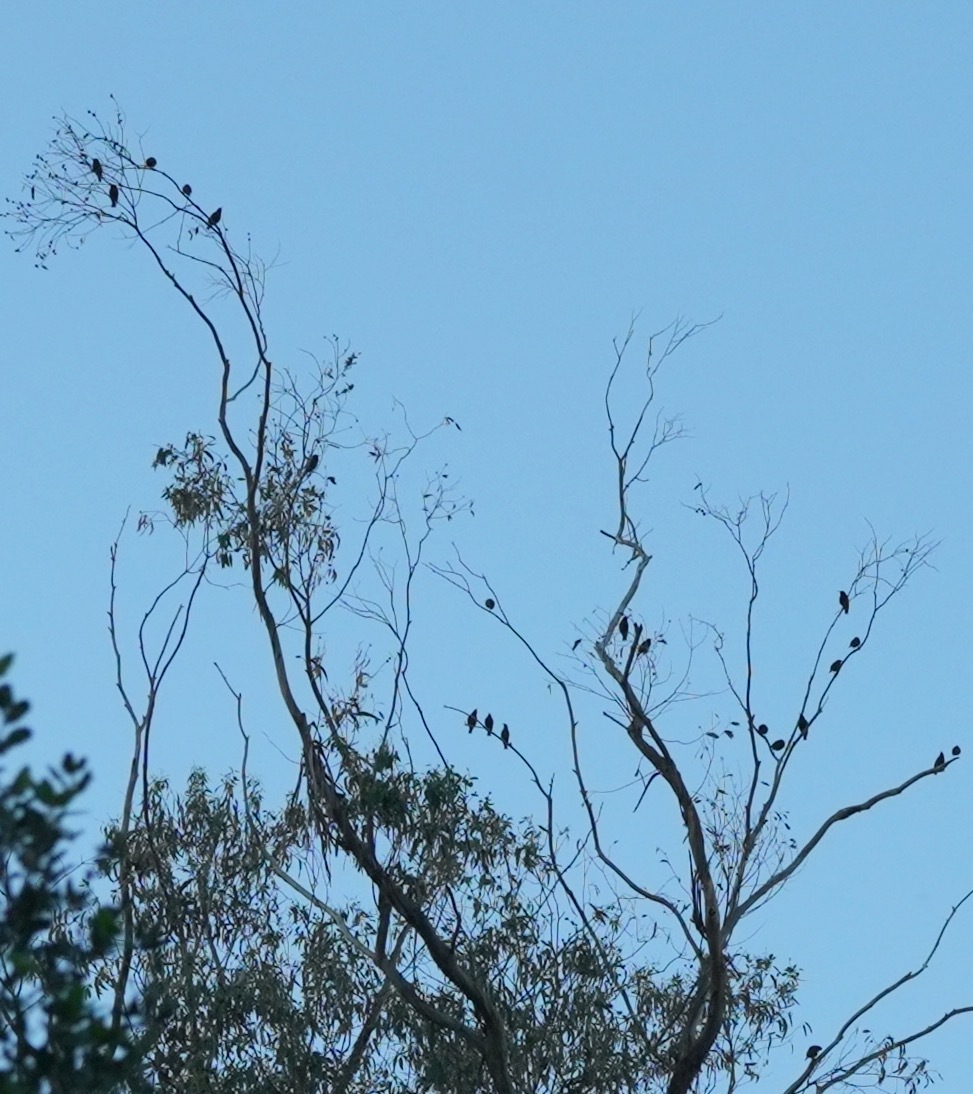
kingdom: Animalia
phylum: Chordata
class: Aves
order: Passeriformes
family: Sturnidae
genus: Sturnus
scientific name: Sturnus vulgaris
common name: Common starling
